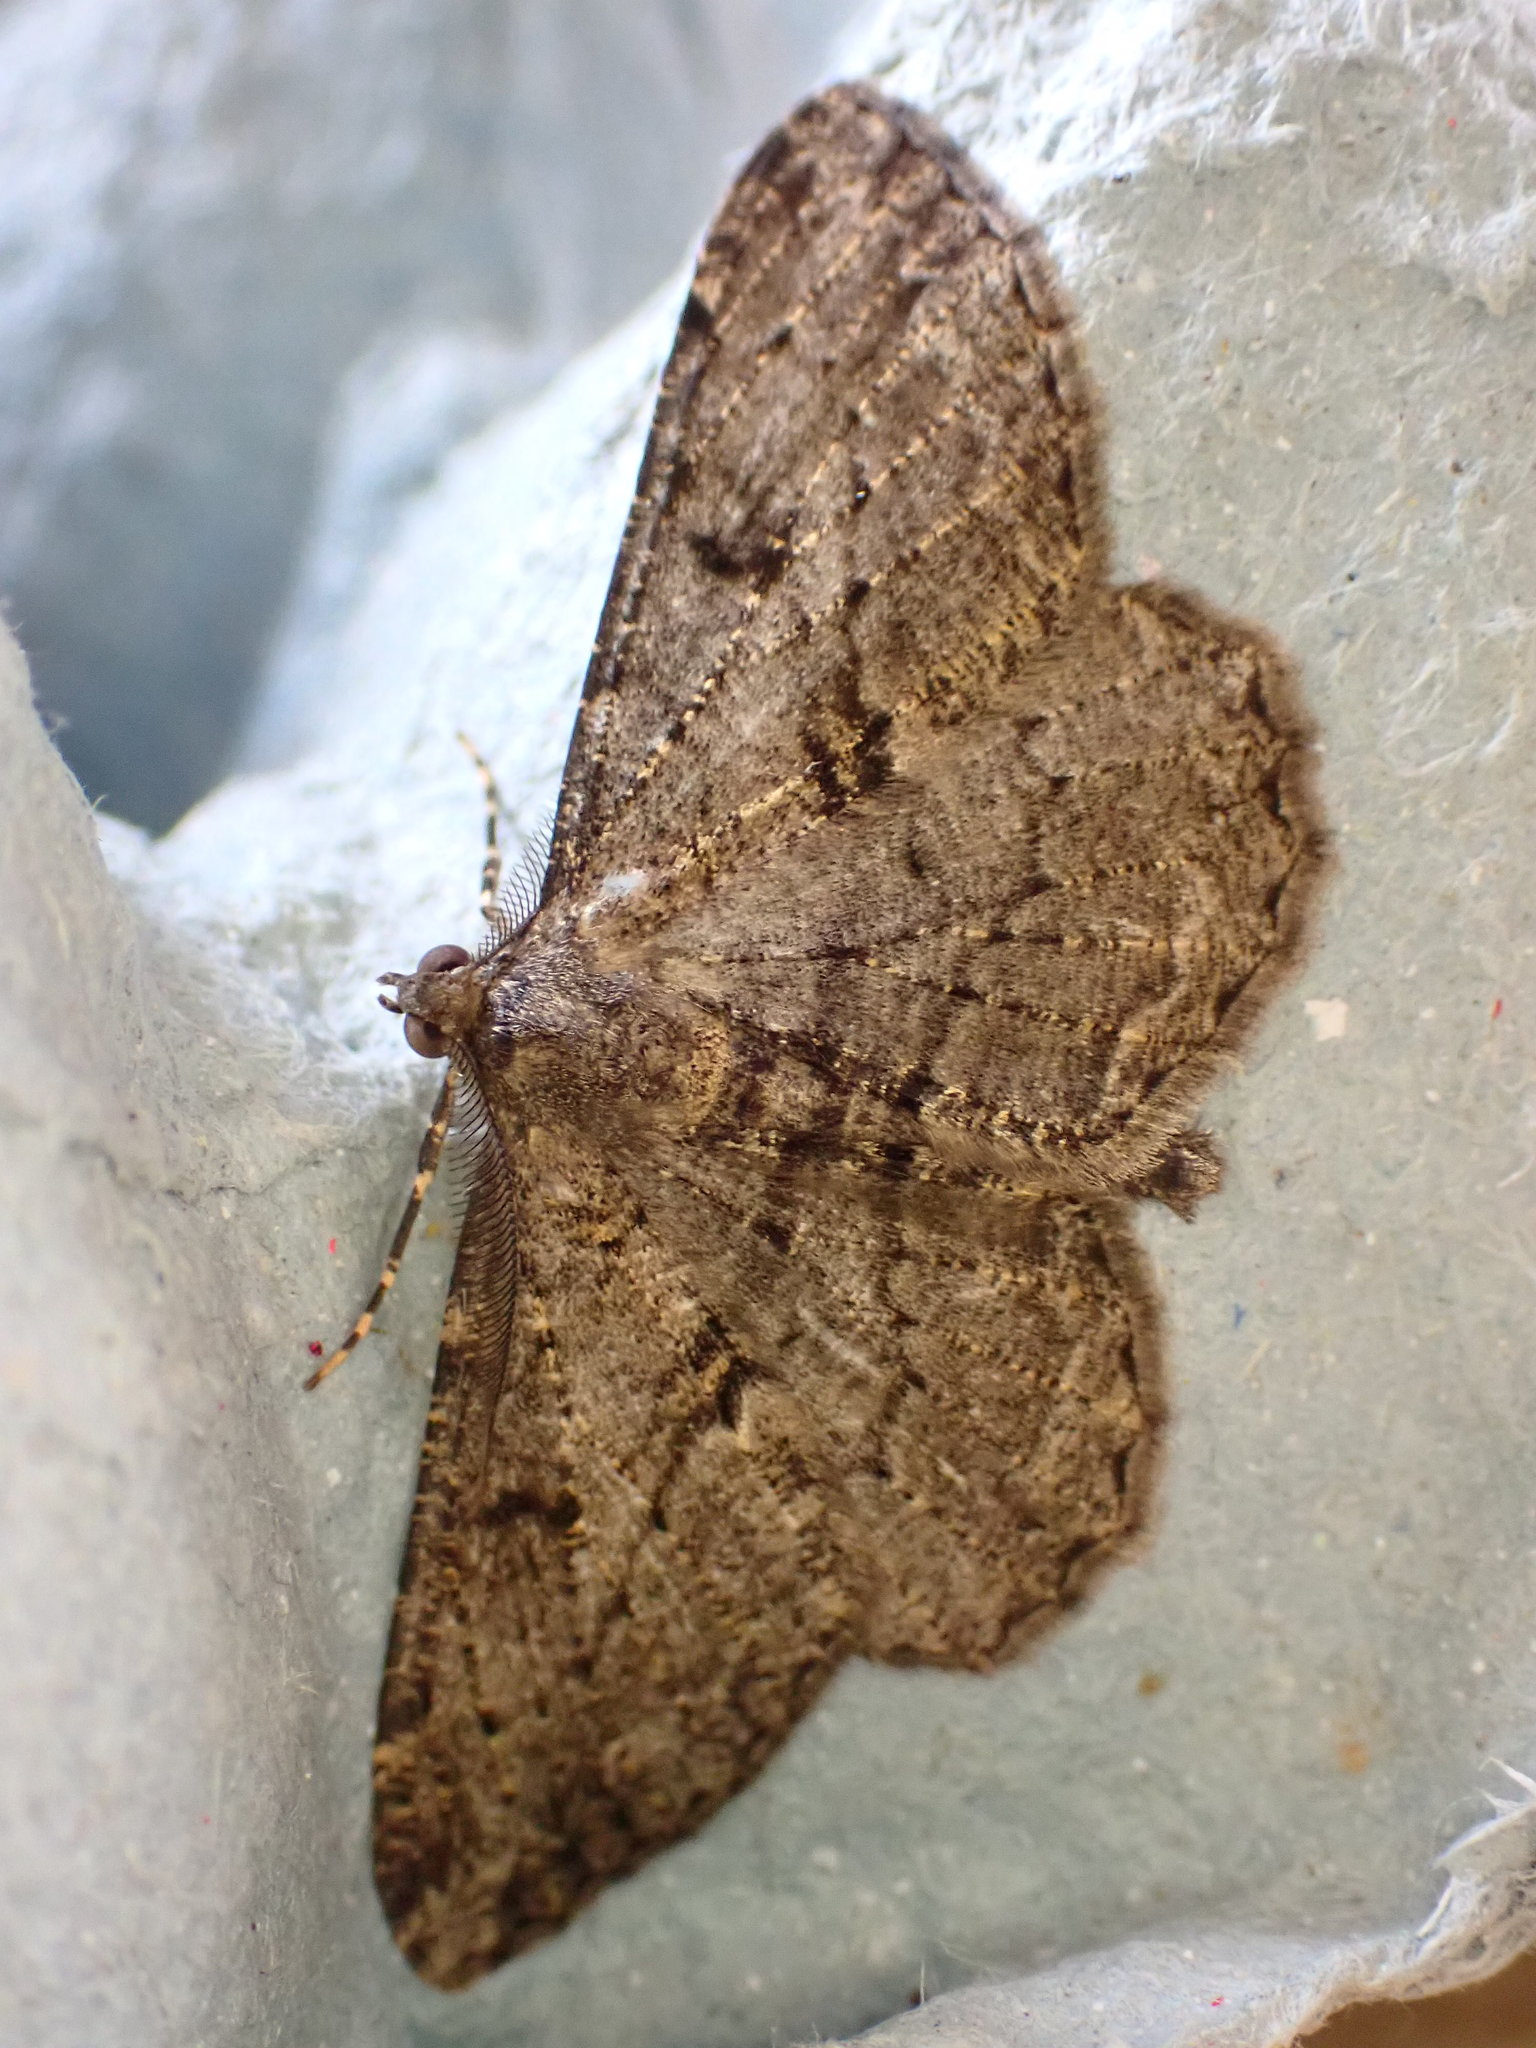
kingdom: Animalia
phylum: Arthropoda
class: Insecta
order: Lepidoptera
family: Geometridae
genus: Peribatodes
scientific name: Peribatodes rhomboidaria
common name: Willow beauty
